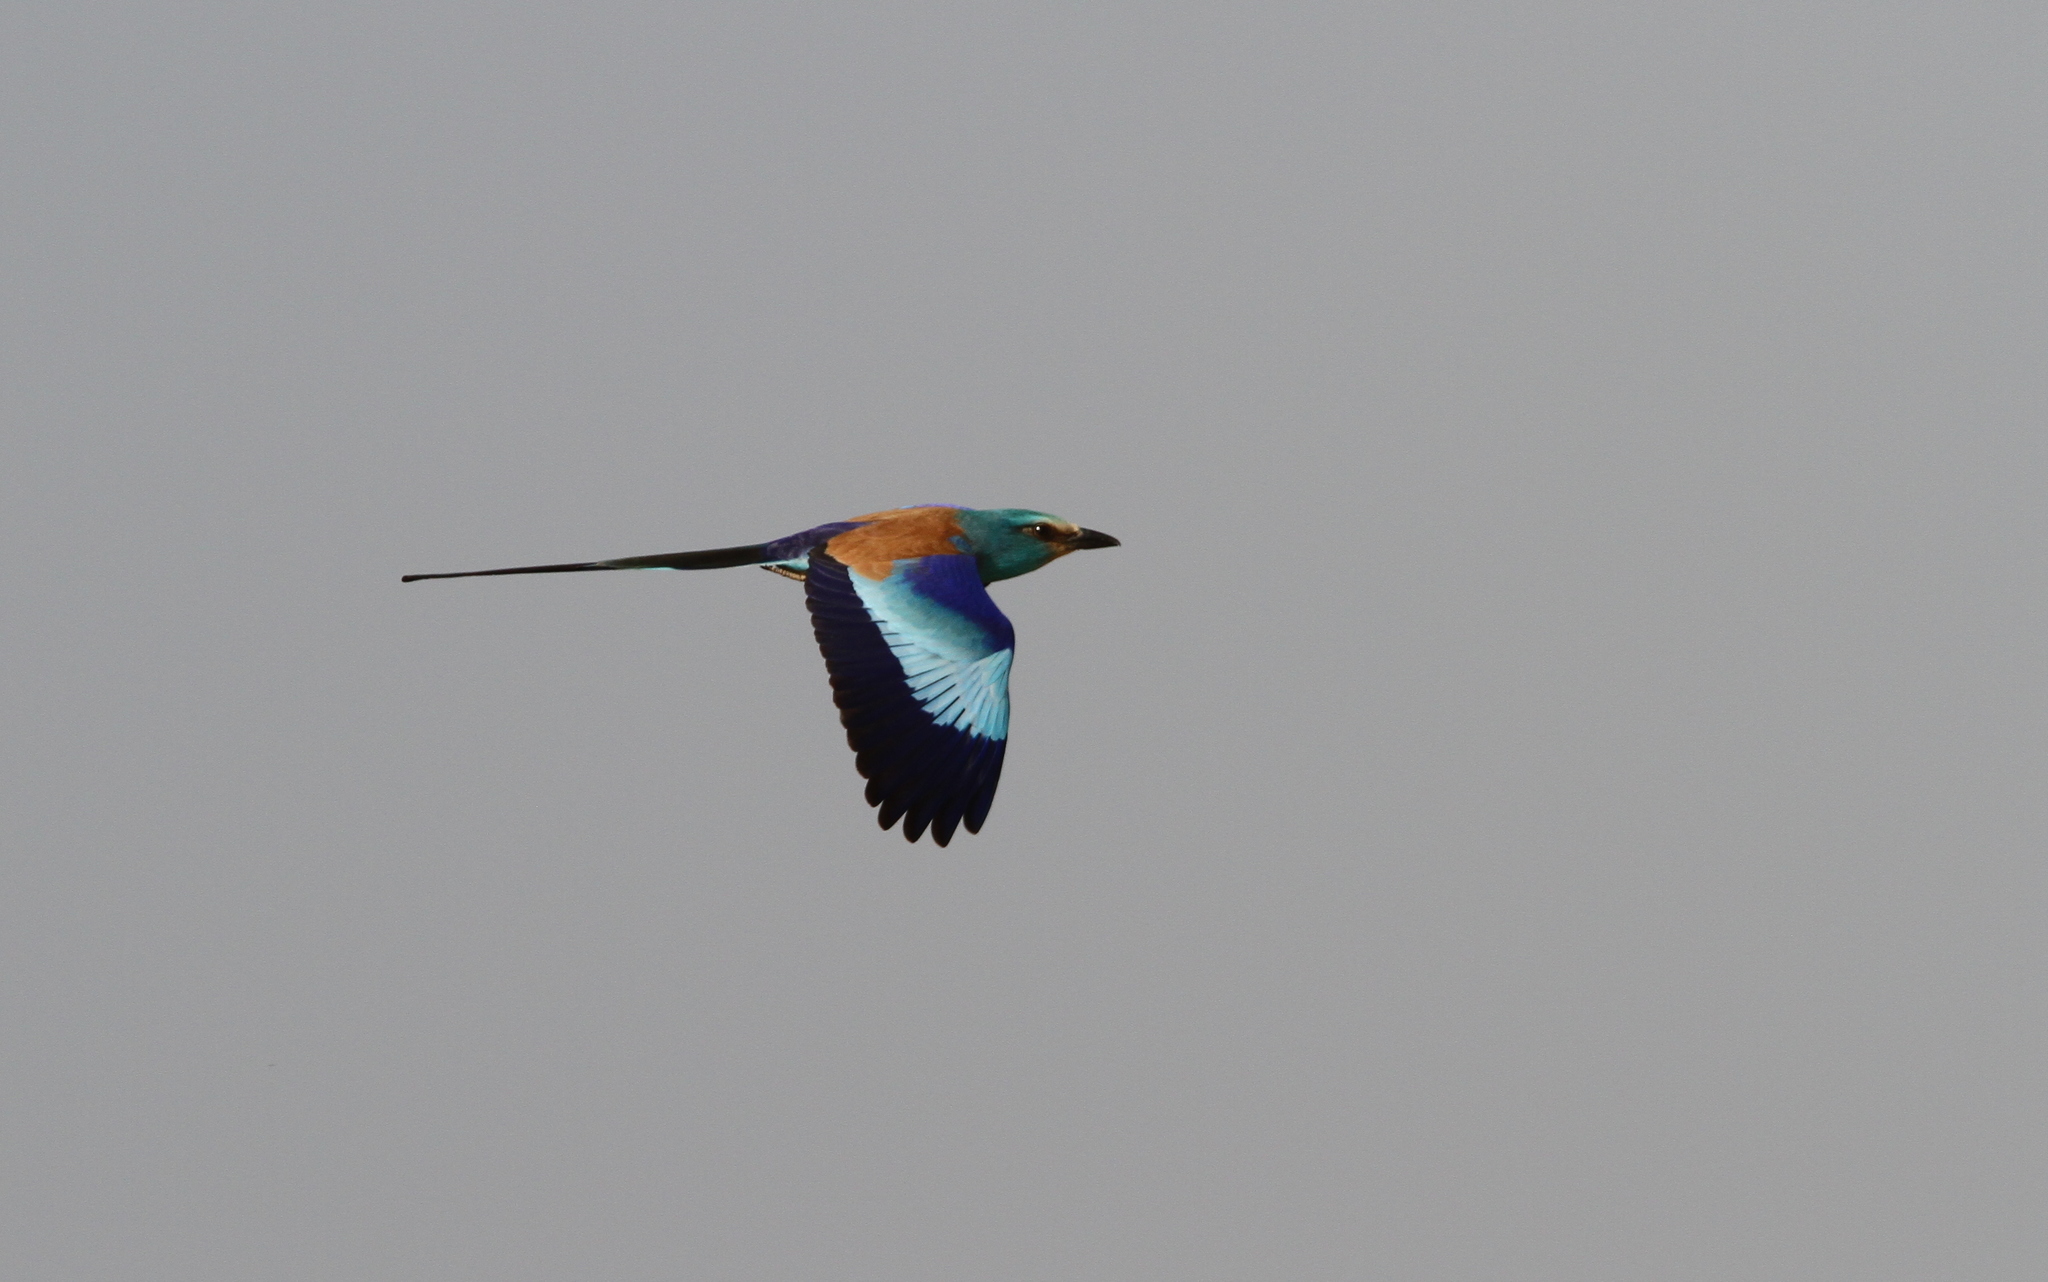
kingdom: Animalia
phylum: Chordata
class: Aves
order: Coraciiformes
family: Coraciidae
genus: Coracias
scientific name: Coracias abyssinicus
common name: Abyssinian roller
